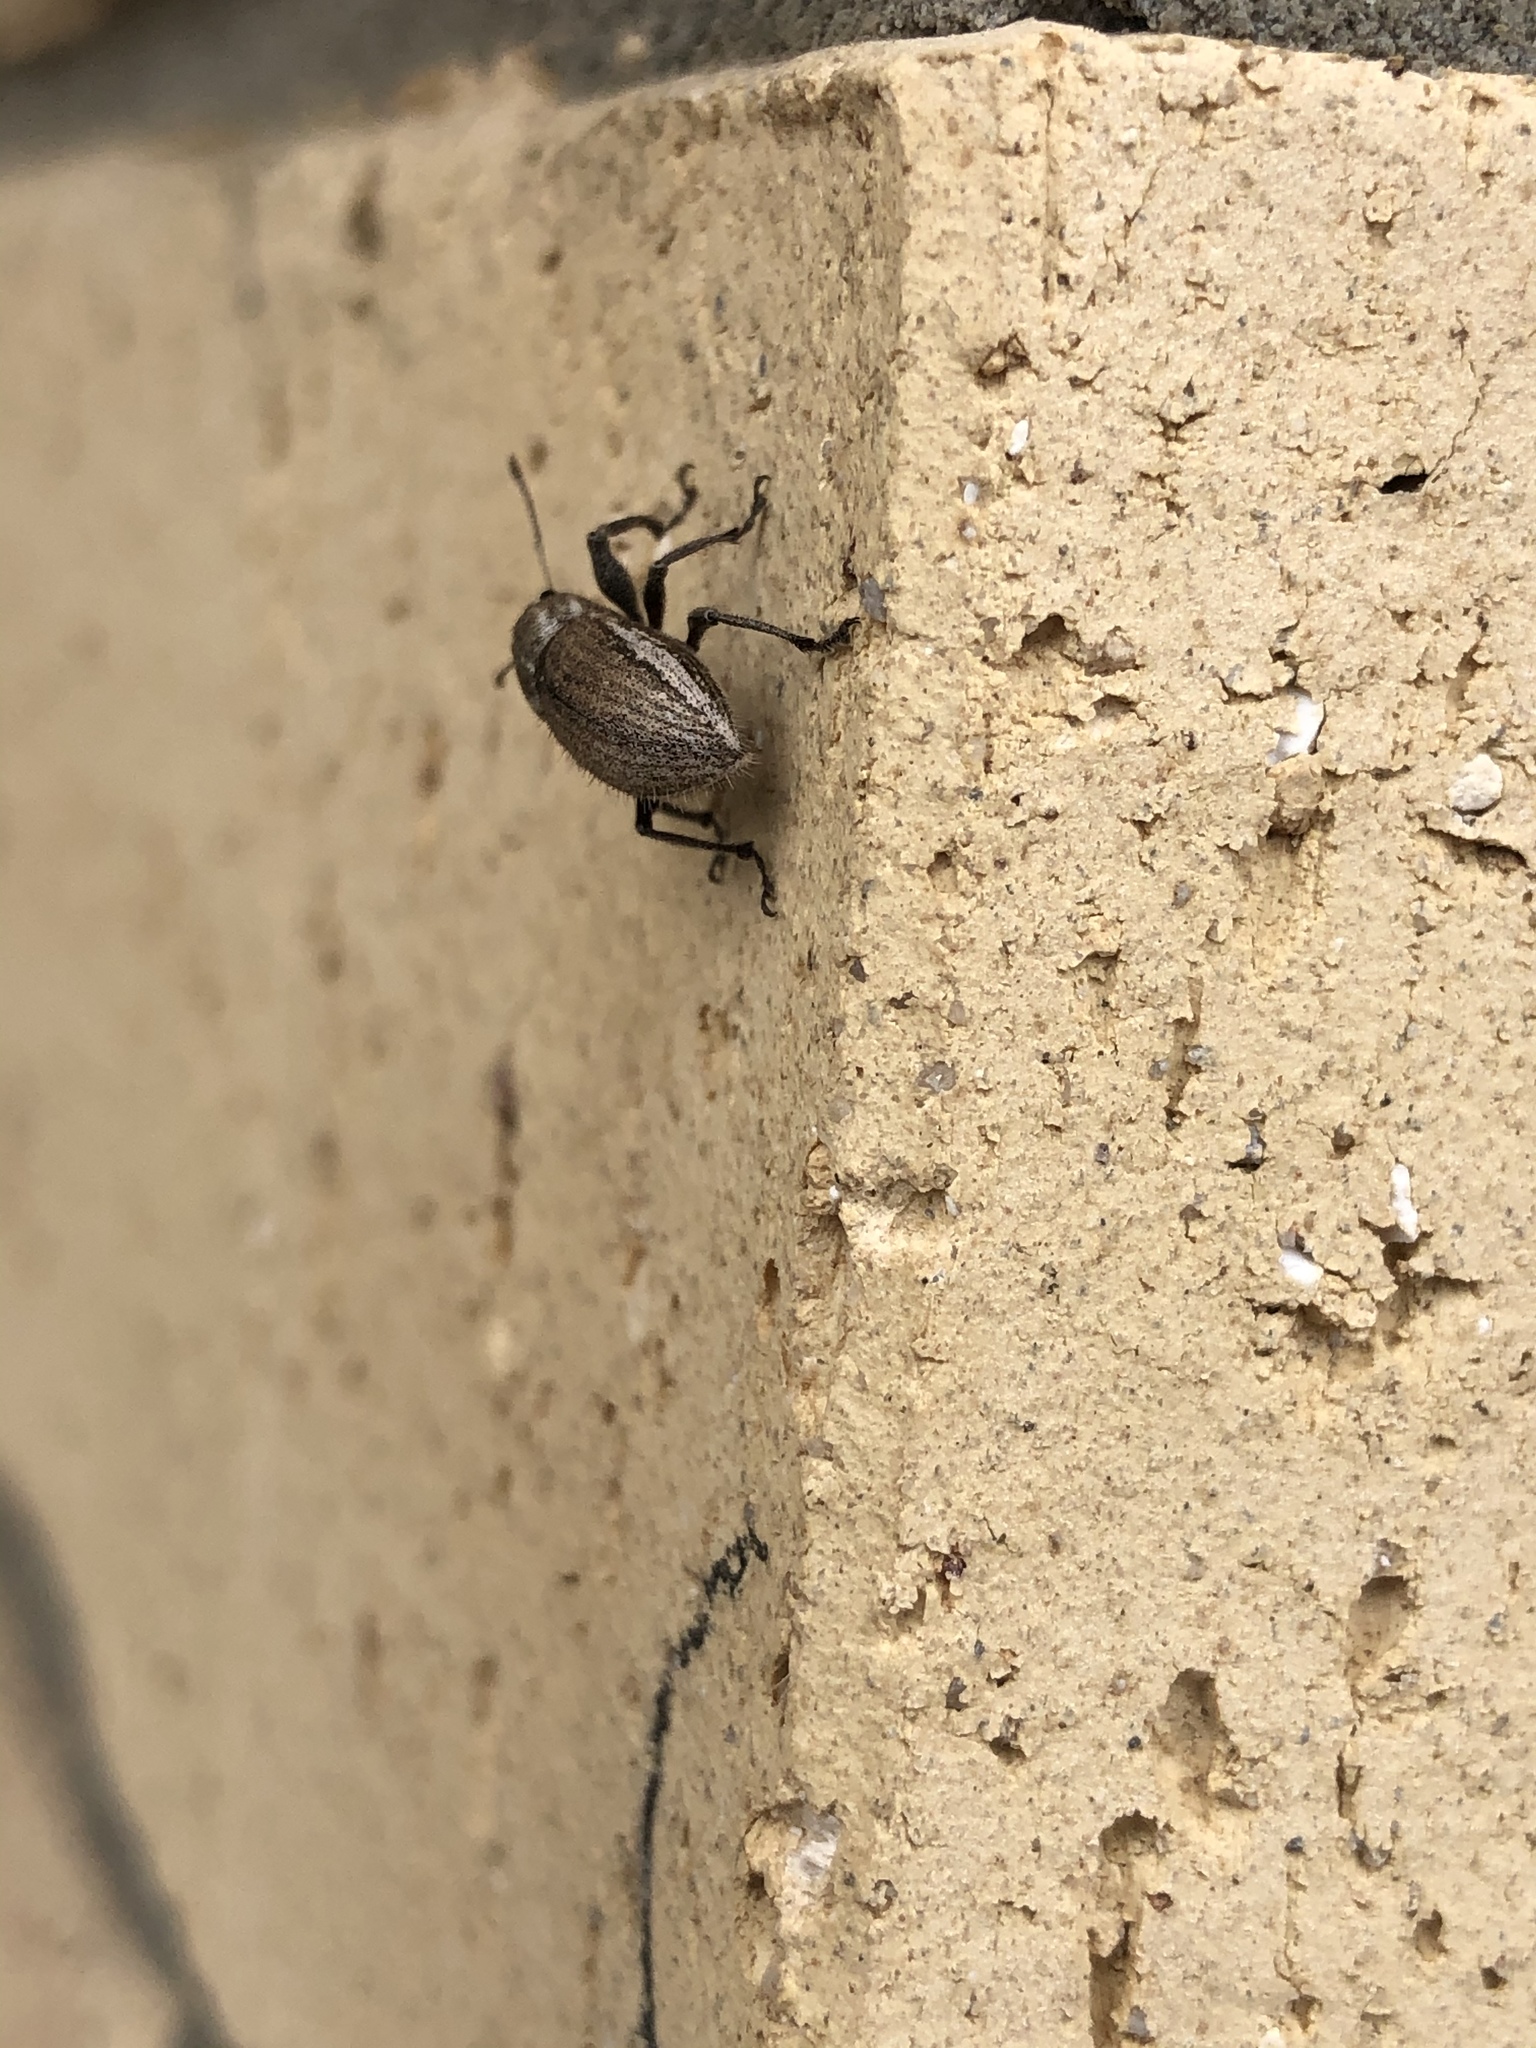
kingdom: Animalia
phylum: Arthropoda
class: Insecta
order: Coleoptera
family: Curculionidae
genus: Naupactus
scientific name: Naupactus leucoloma
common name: Whitefringed beetle
